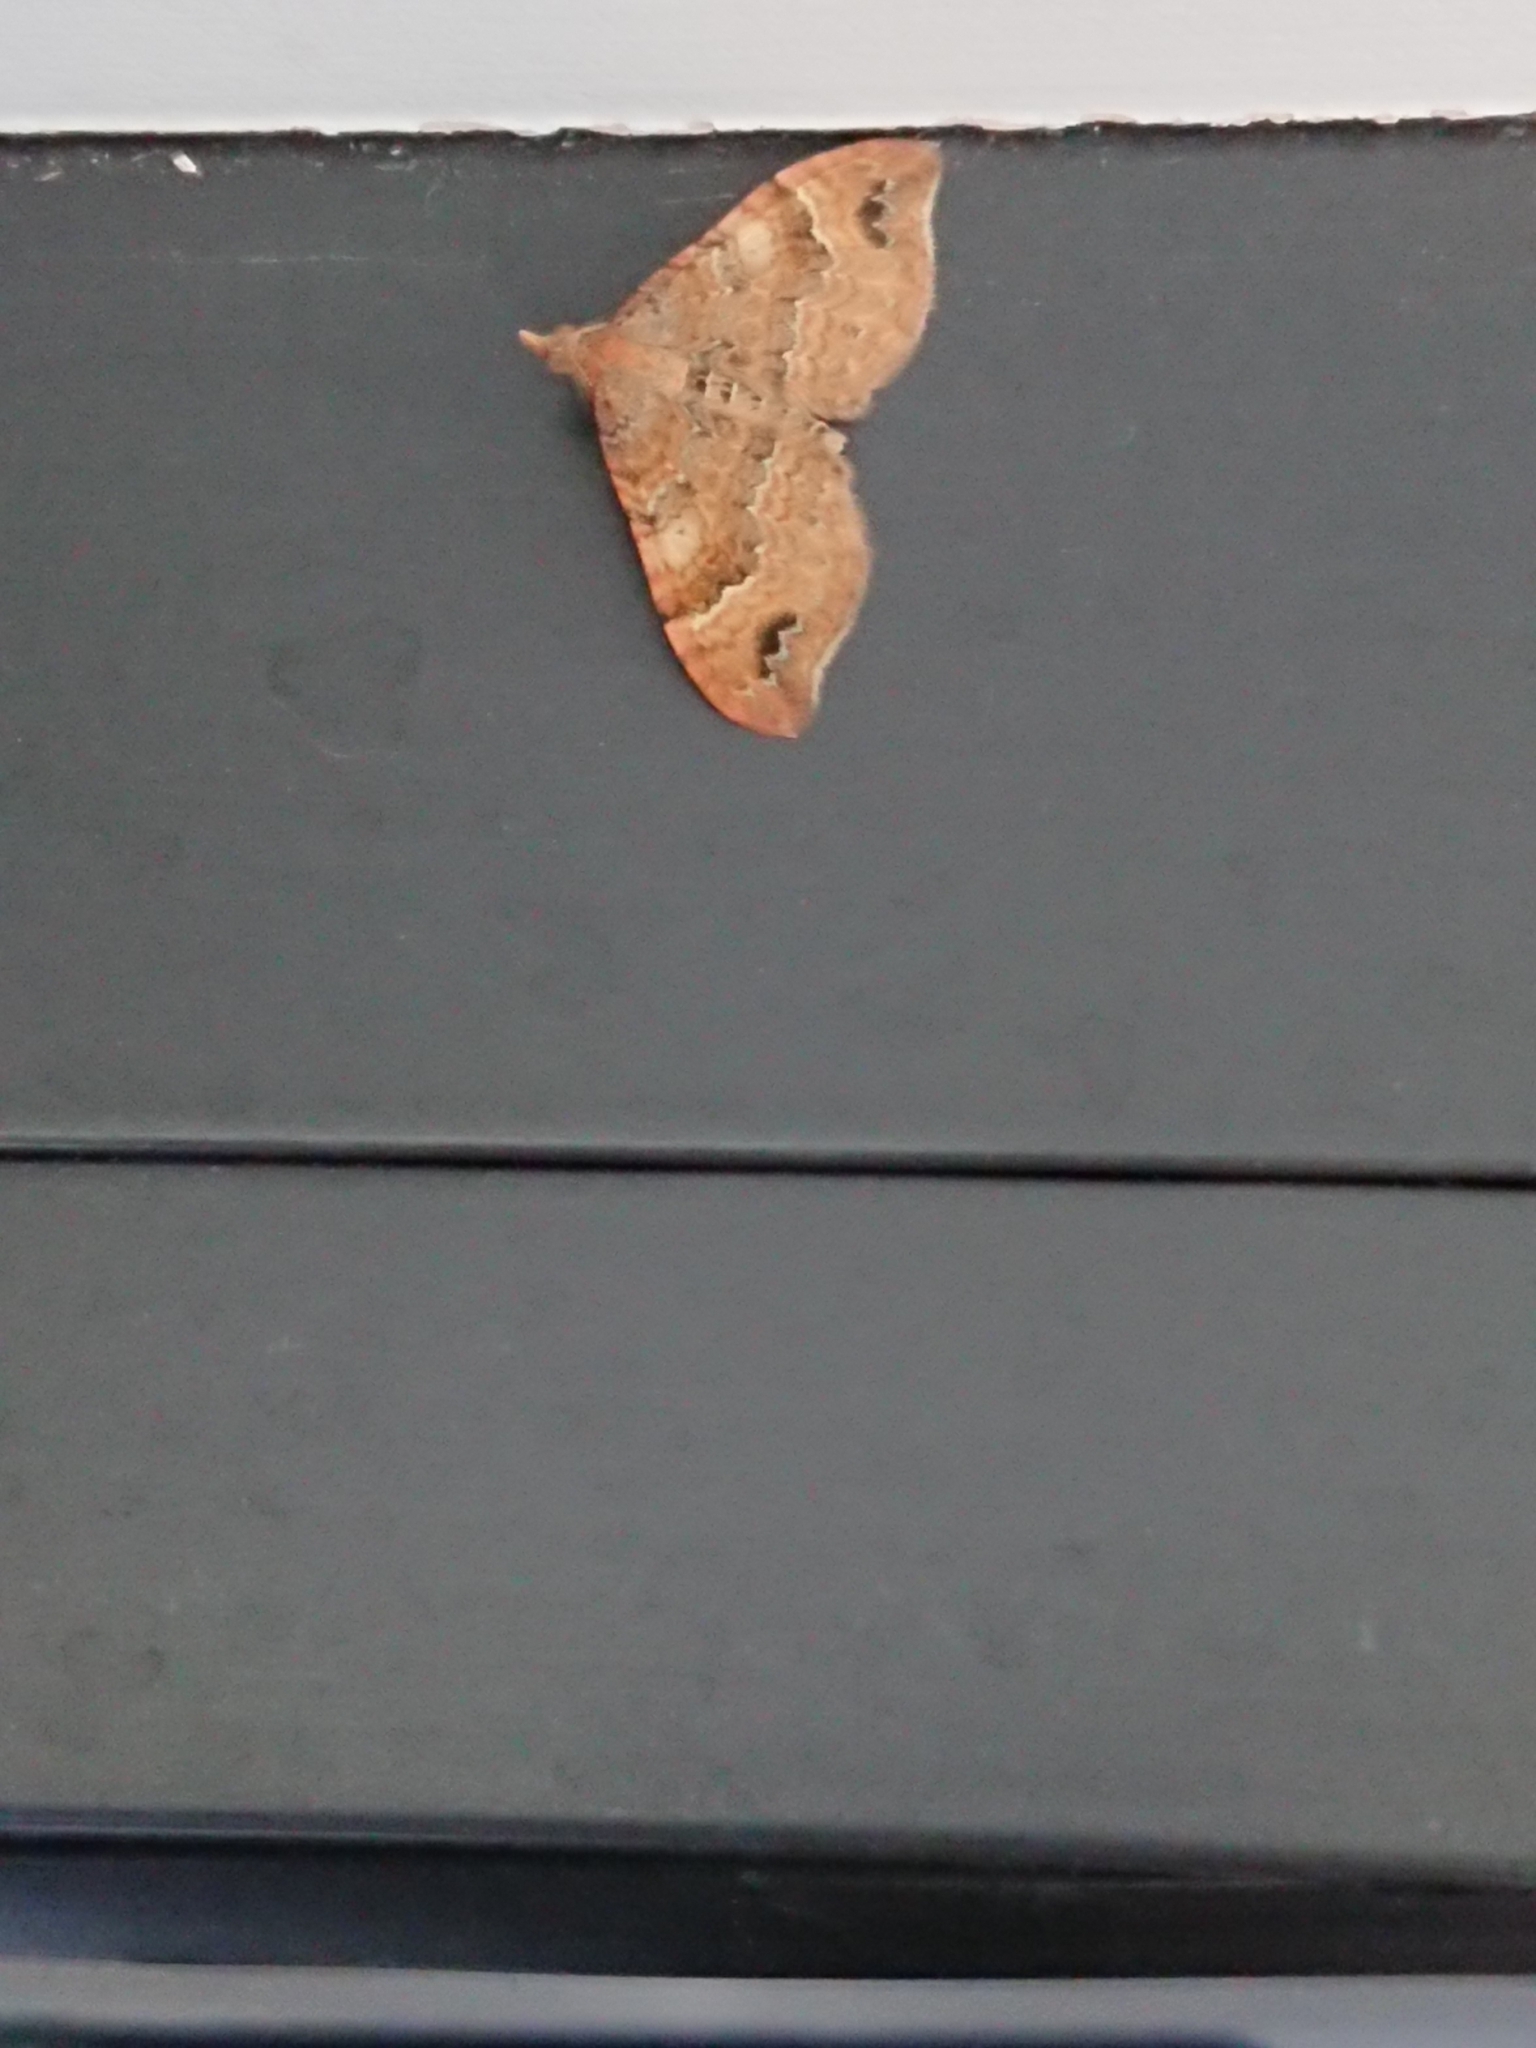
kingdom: Animalia
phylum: Arthropoda
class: Insecta
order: Lepidoptera
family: Geometridae
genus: Homodotis
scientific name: Homodotis megaspilata
